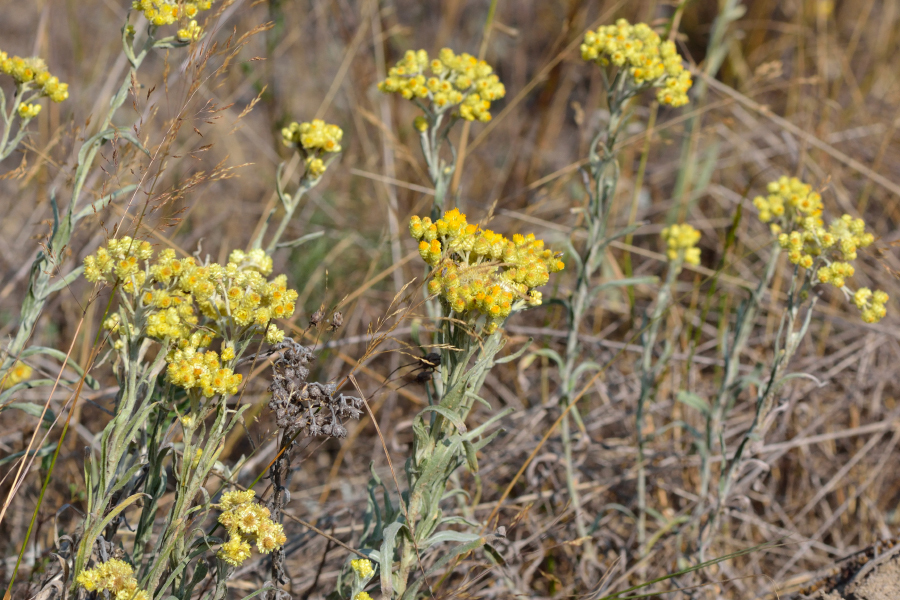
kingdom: Plantae
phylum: Tracheophyta
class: Magnoliopsida
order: Asterales
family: Asteraceae
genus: Helichrysum
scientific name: Helichrysum arenarium
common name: Strawflower
